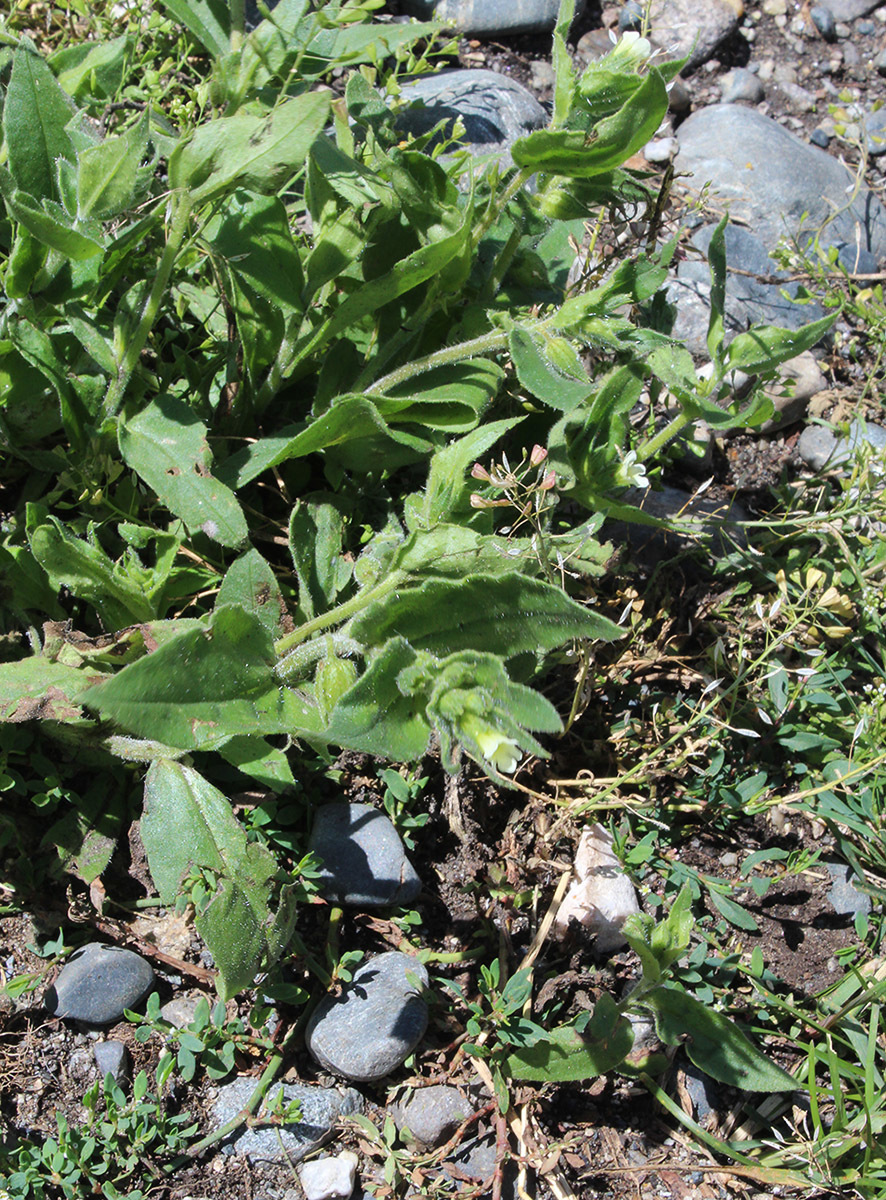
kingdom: Plantae
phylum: Tracheophyta
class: Magnoliopsida
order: Boraginales
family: Boraginaceae
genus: Nonea
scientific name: Nonea lutea
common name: Yellow nonea
